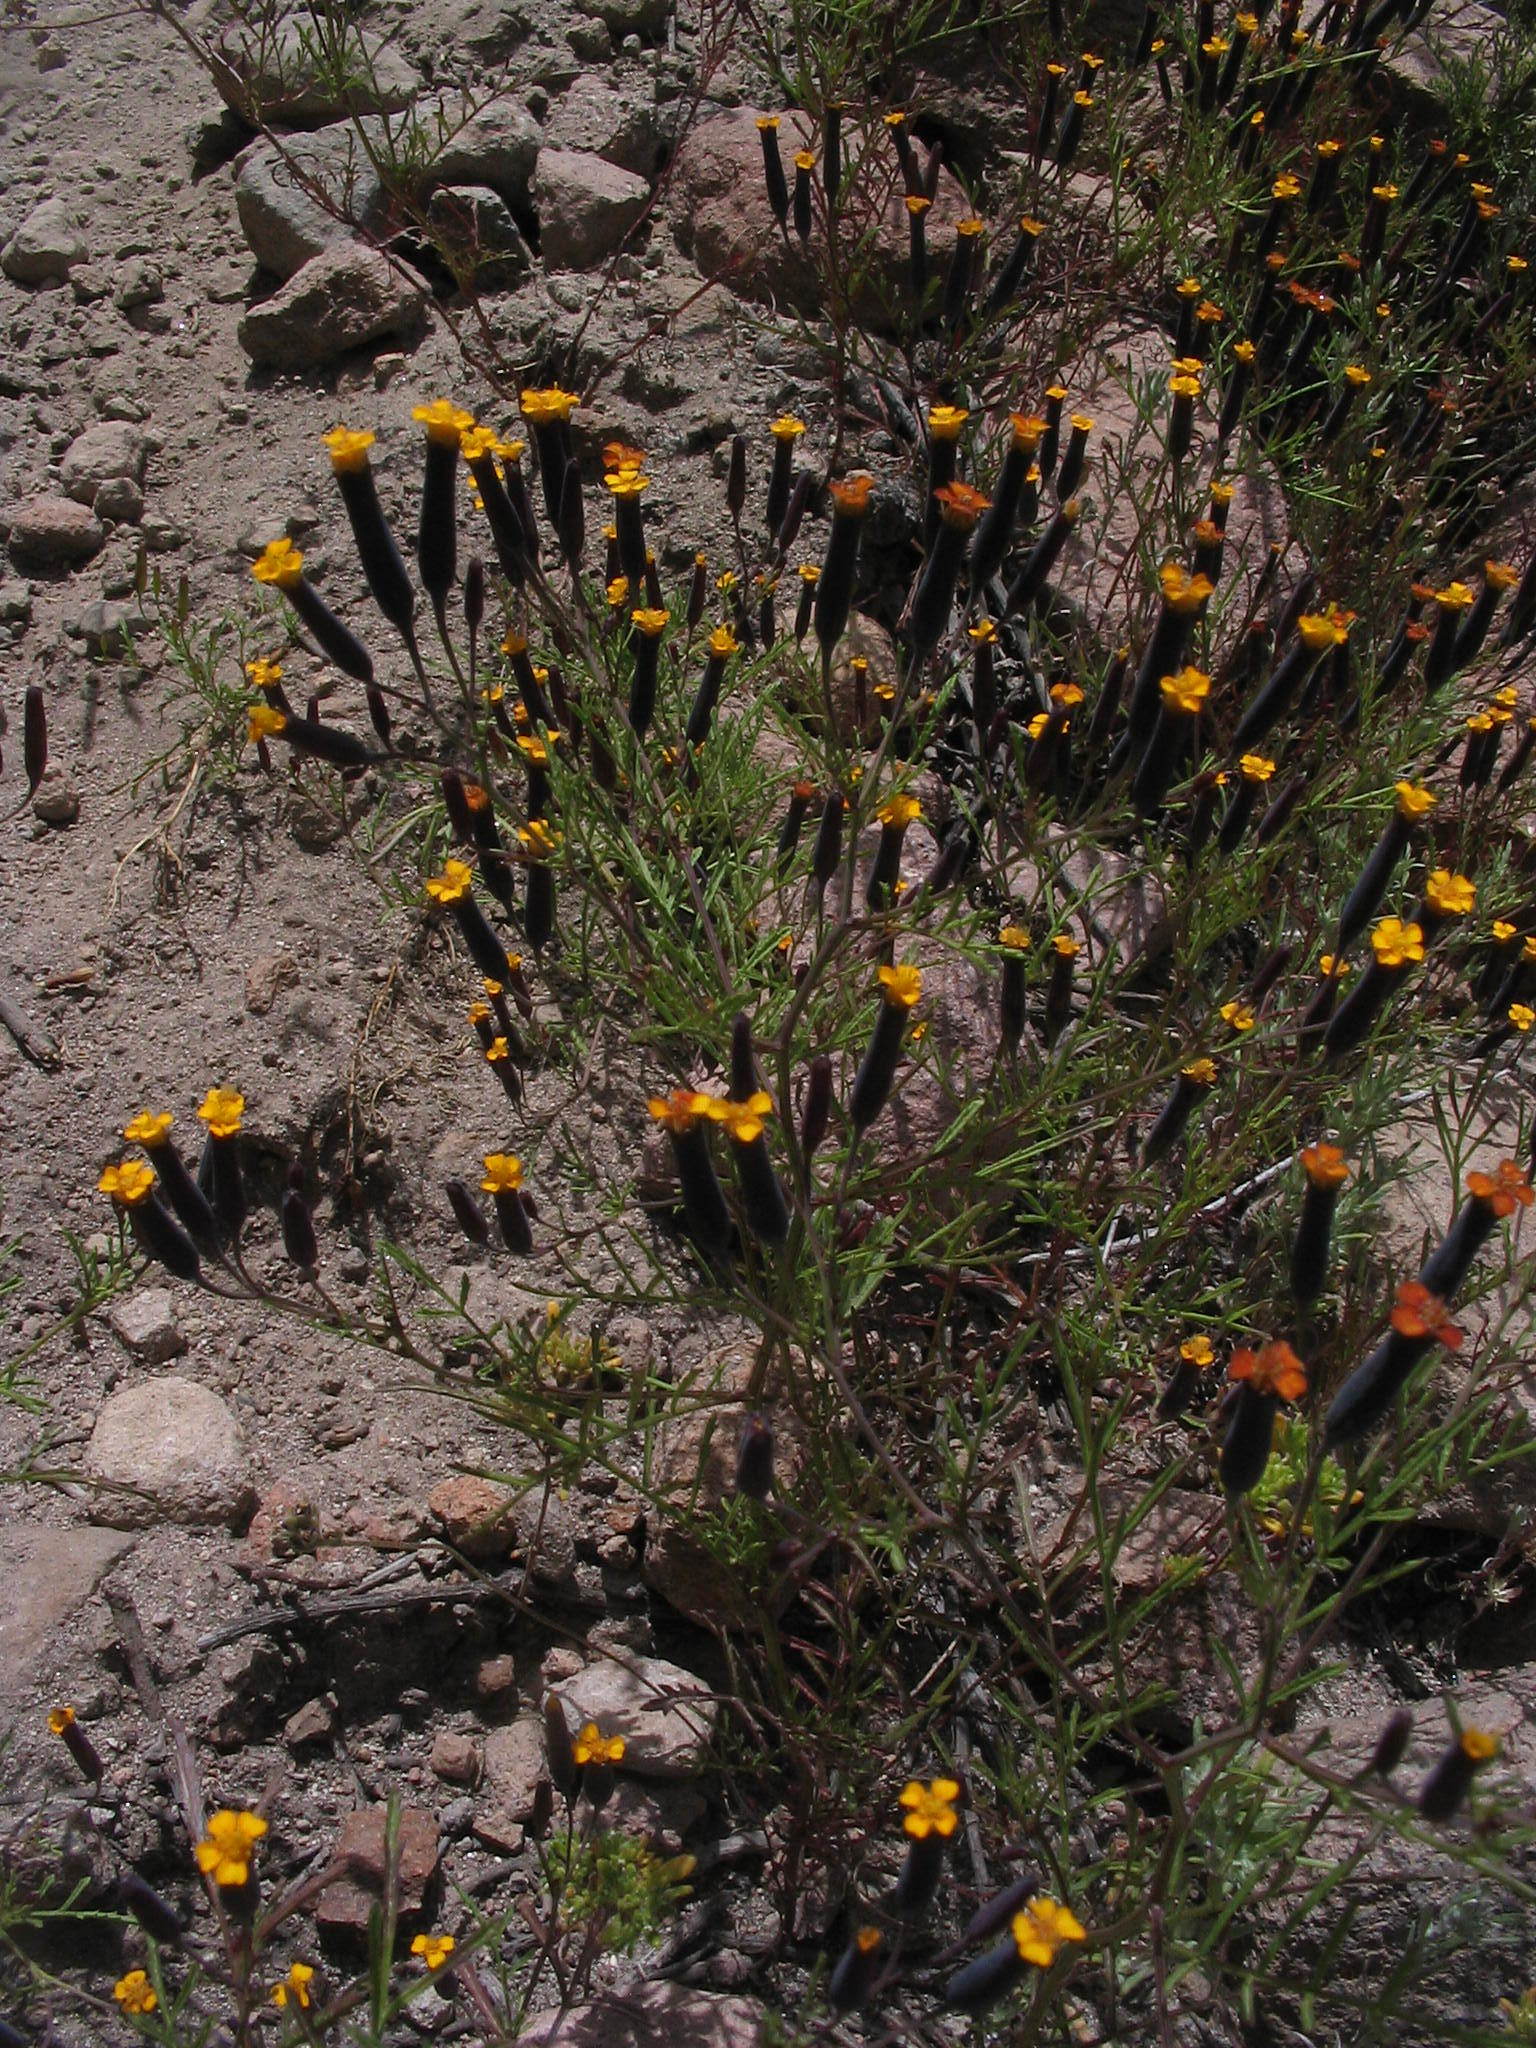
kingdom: Plantae
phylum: Tracheophyta
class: Magnoliopsida
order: Asterales
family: Asteraceae
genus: Tagetes
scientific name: Tagetes multiflora
